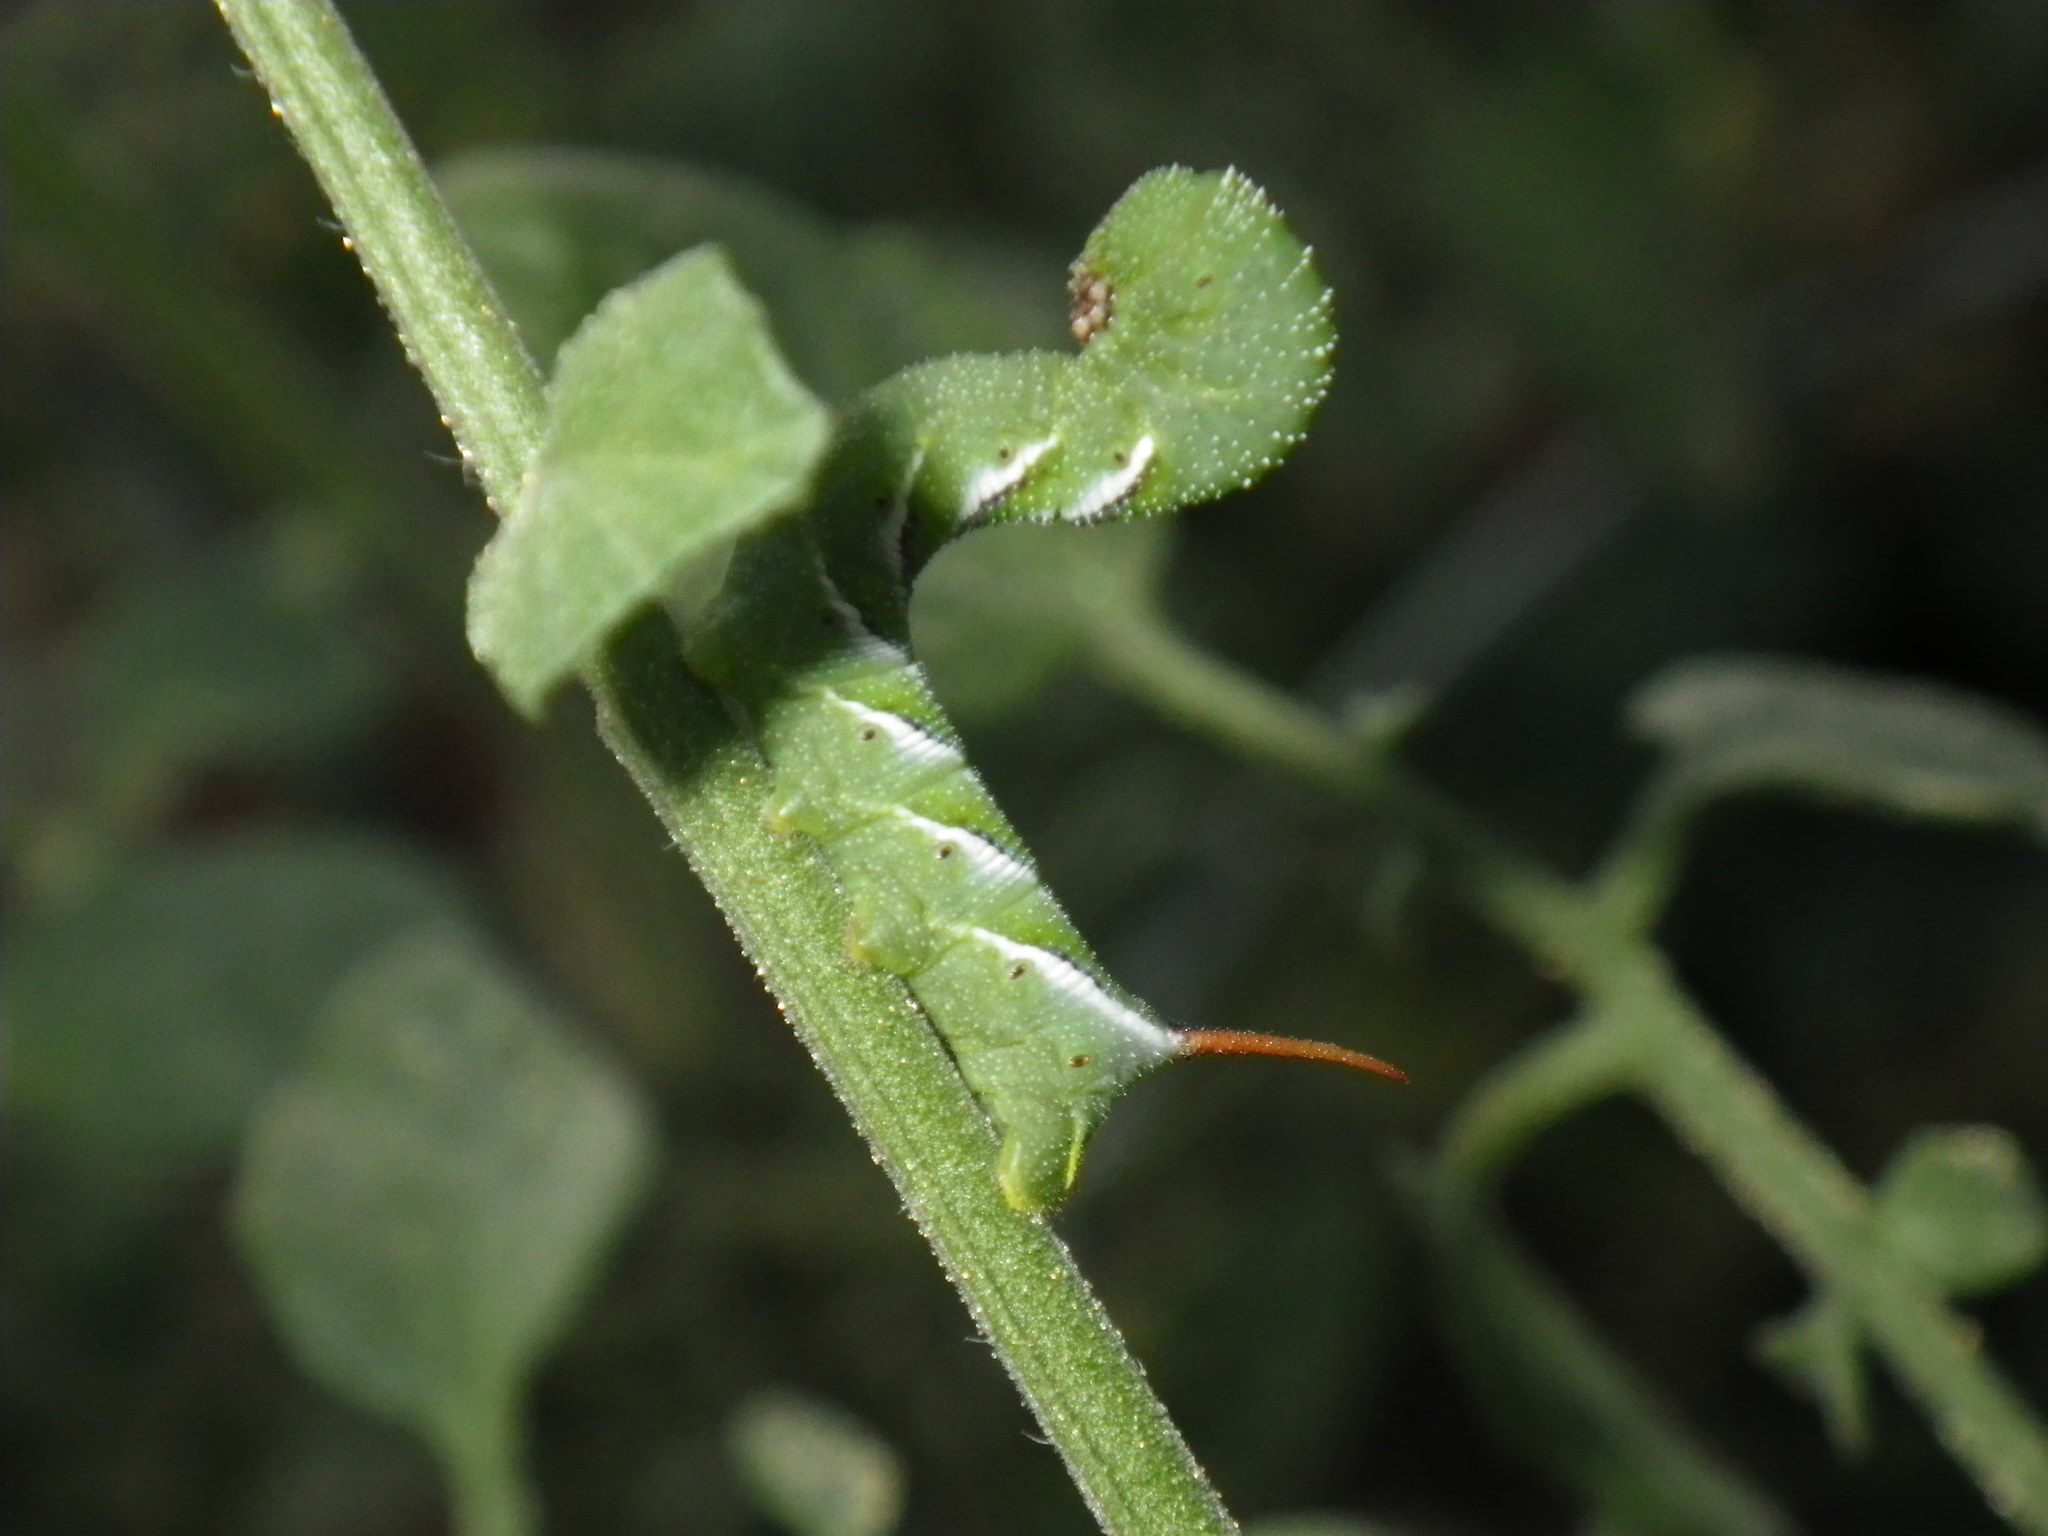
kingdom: Animalia
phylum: Arthropoda
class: Insecta
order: Lepidoptera
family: Sphingidae
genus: Manduca
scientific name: Manduca sexta
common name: Carolina sphinx
